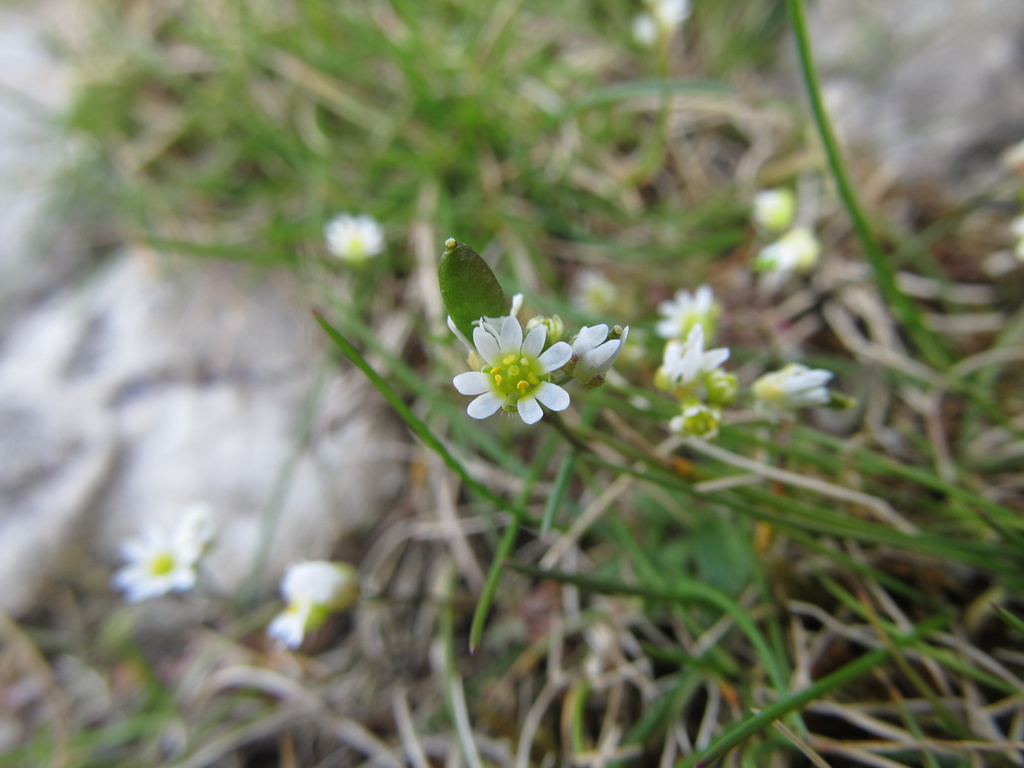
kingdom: Plantae
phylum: Tracheophyta
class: Magnoliopsida
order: Brassicales
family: Brassicaceae
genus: Draba
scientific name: Draba verna
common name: Spring draba
